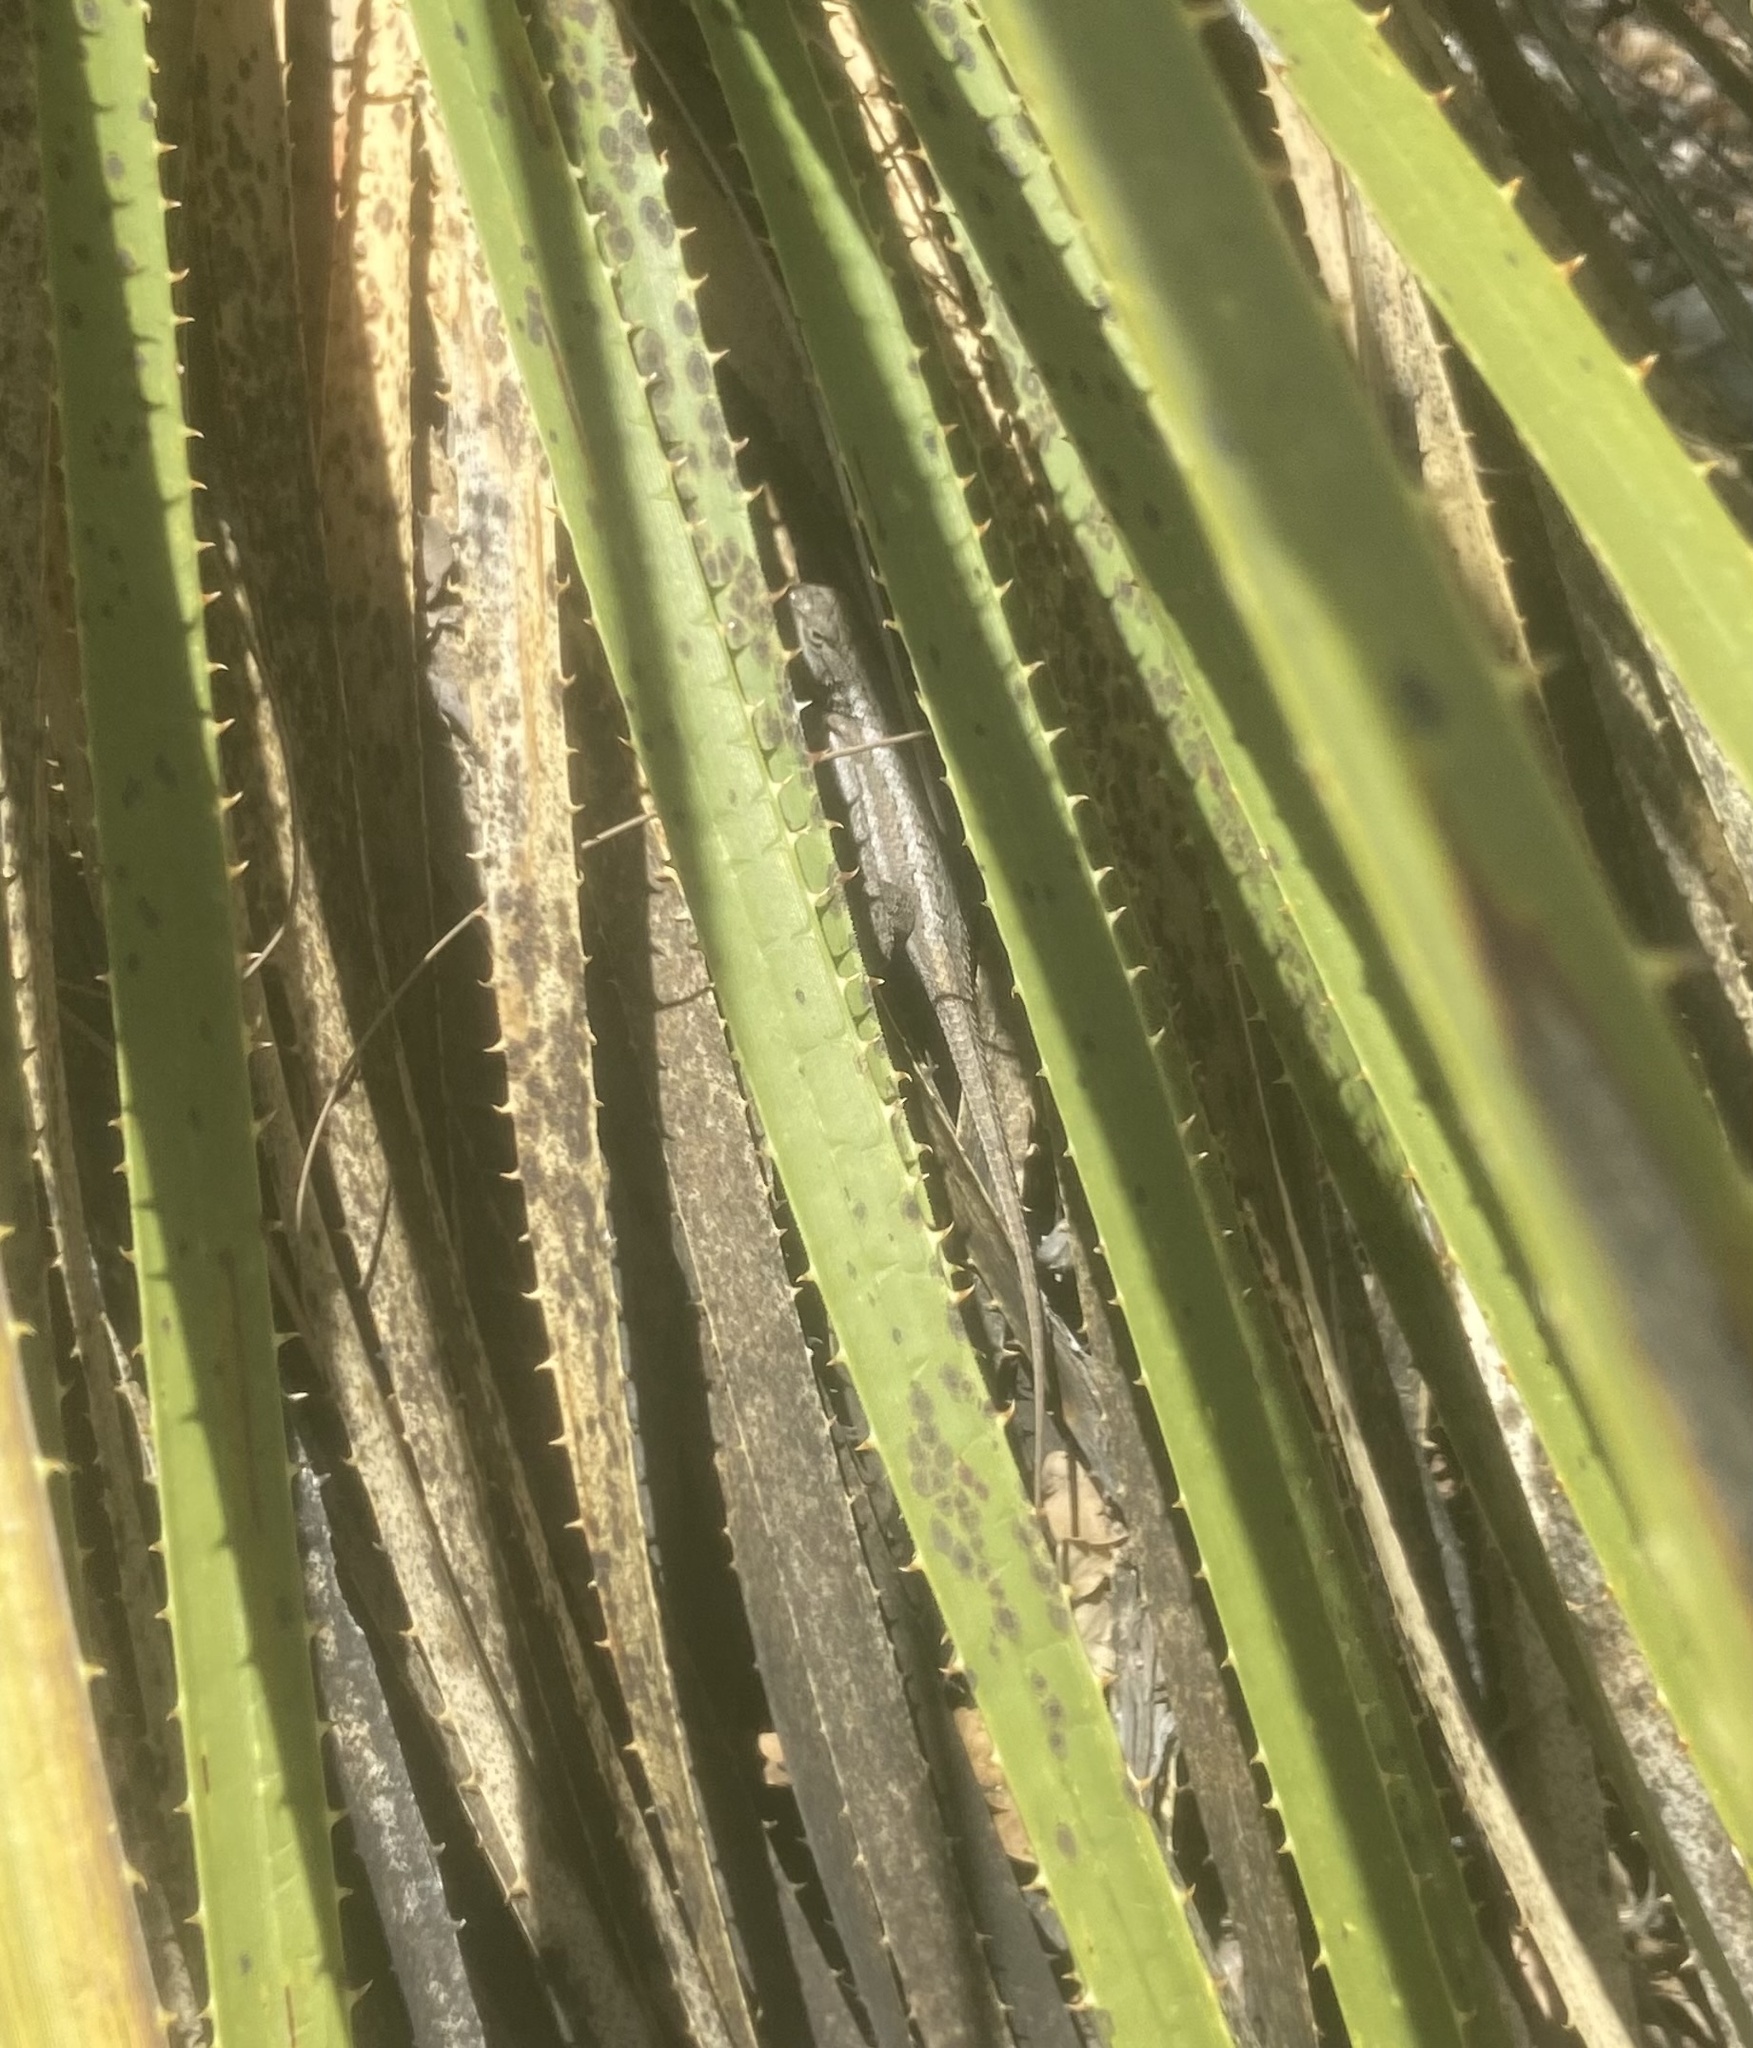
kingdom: Animalia
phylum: Chordata
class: Squamata
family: Phrynosomatidae
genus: Sceloporus
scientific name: Sceloporus cowlesi
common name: White sands prairie lizard
